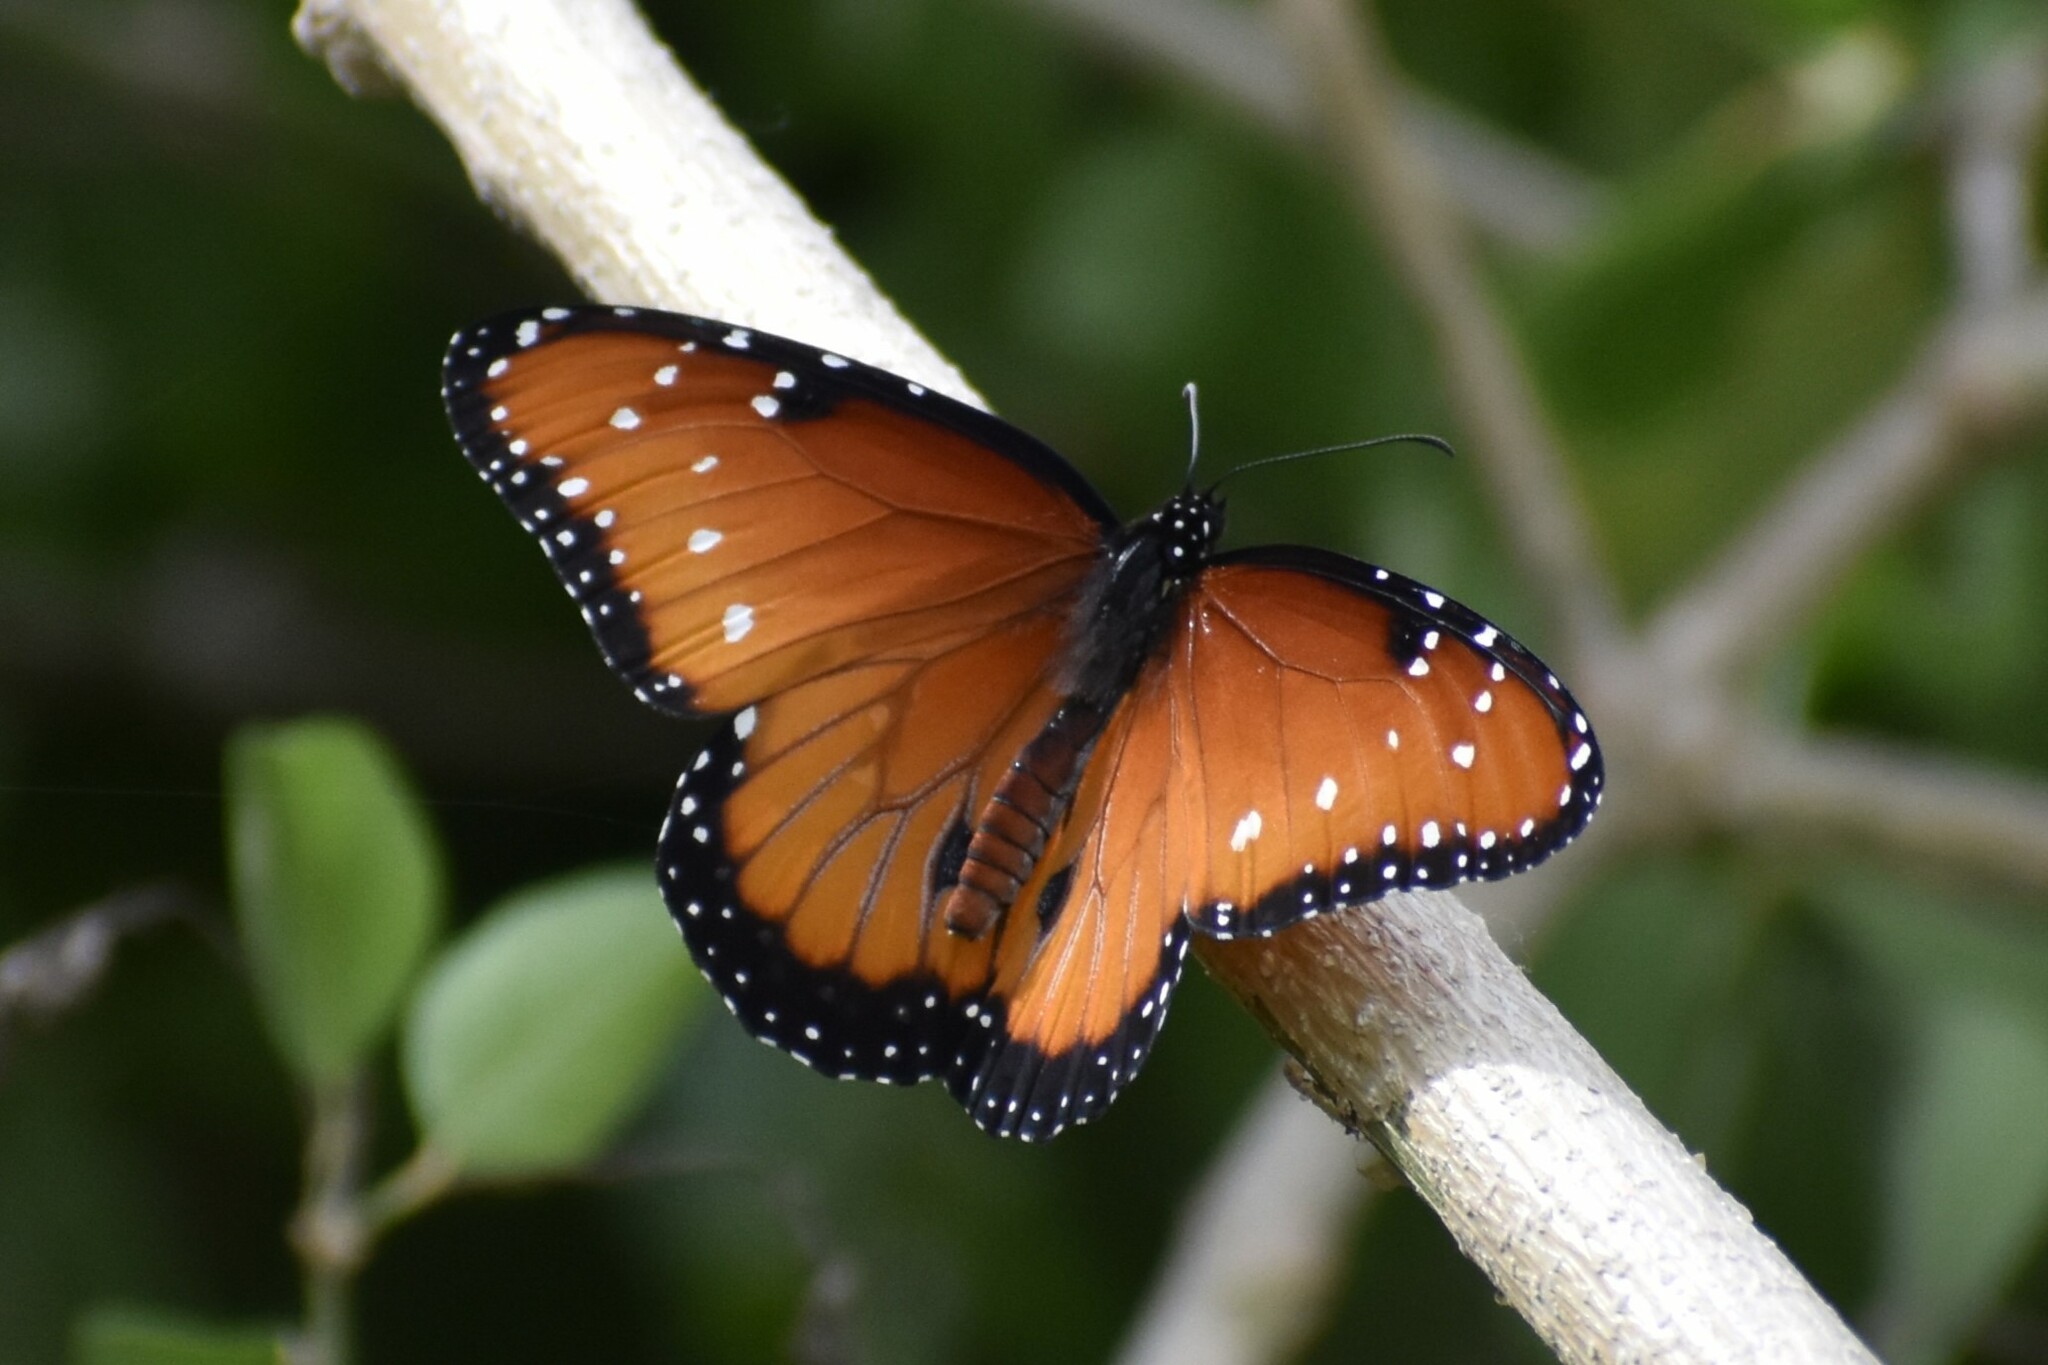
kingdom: Animalia
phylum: Arthropoda
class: Insecta
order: Lepidoptera
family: Nymphalidae
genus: Danaus
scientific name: Danaus gilippus
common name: Queen
